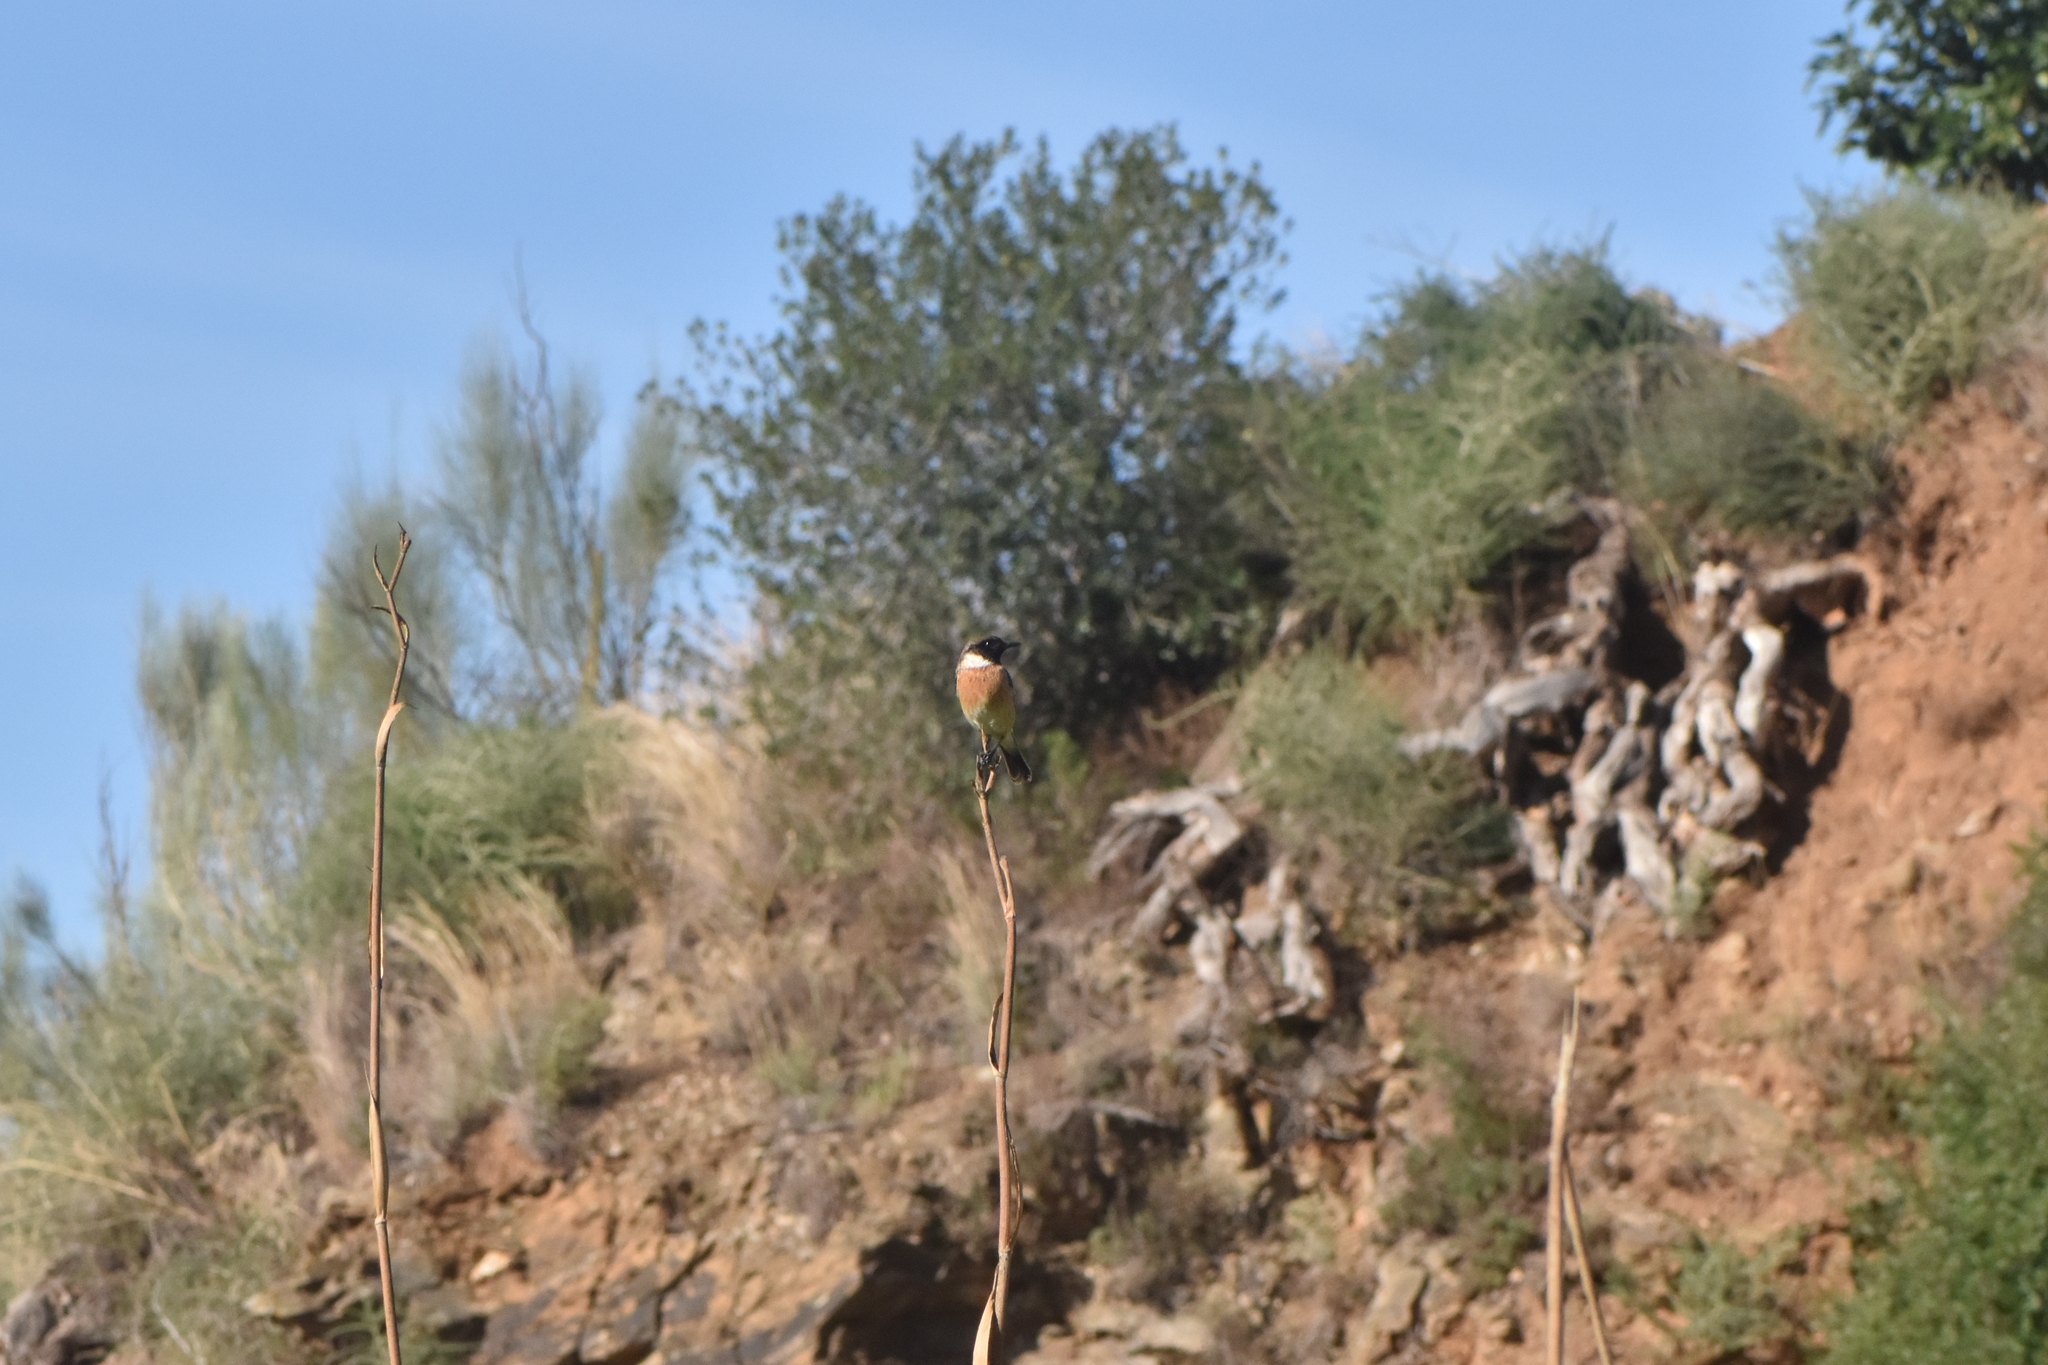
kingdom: Animalia
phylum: Chordata
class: Aves
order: Passeriformes
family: Muscicapidae
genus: Saxicola
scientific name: Saxicola rubicola
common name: European stonechat
